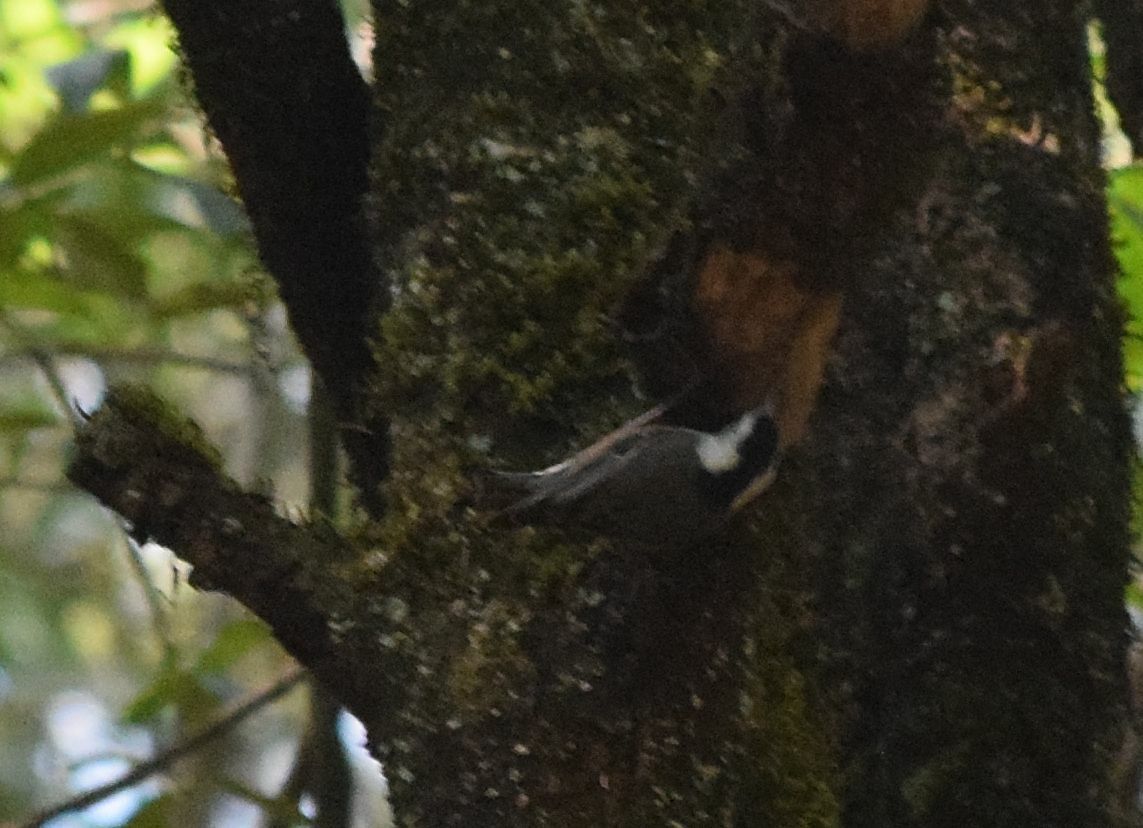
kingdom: Animalia
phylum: Chordata
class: Aves
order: Passeriformes
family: Sittidae
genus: Sitta
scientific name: Sitta carolinensis
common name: White-breasted nuthatch
